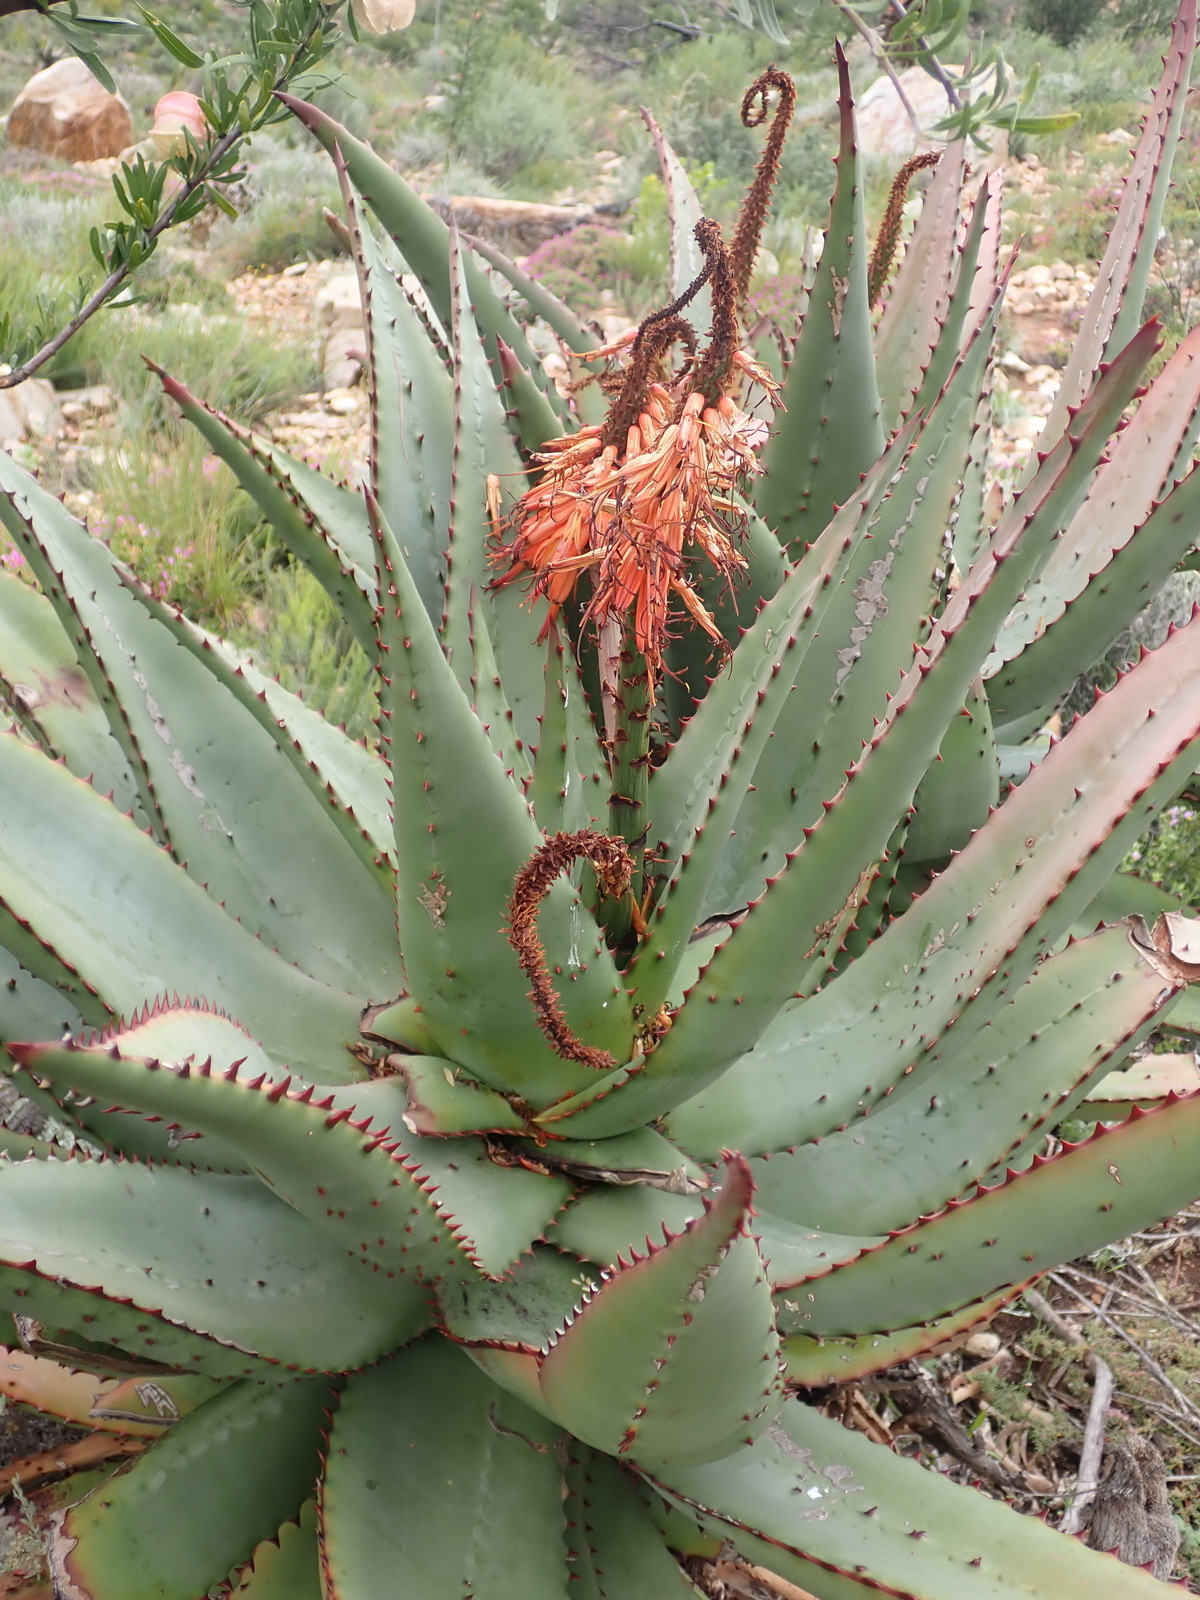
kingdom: Plantae
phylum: Tracheophyta
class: Liliopsida
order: Asparagales
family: Asphodelaceae
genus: Aloe
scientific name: Aloe ferox
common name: Bitter aloe
